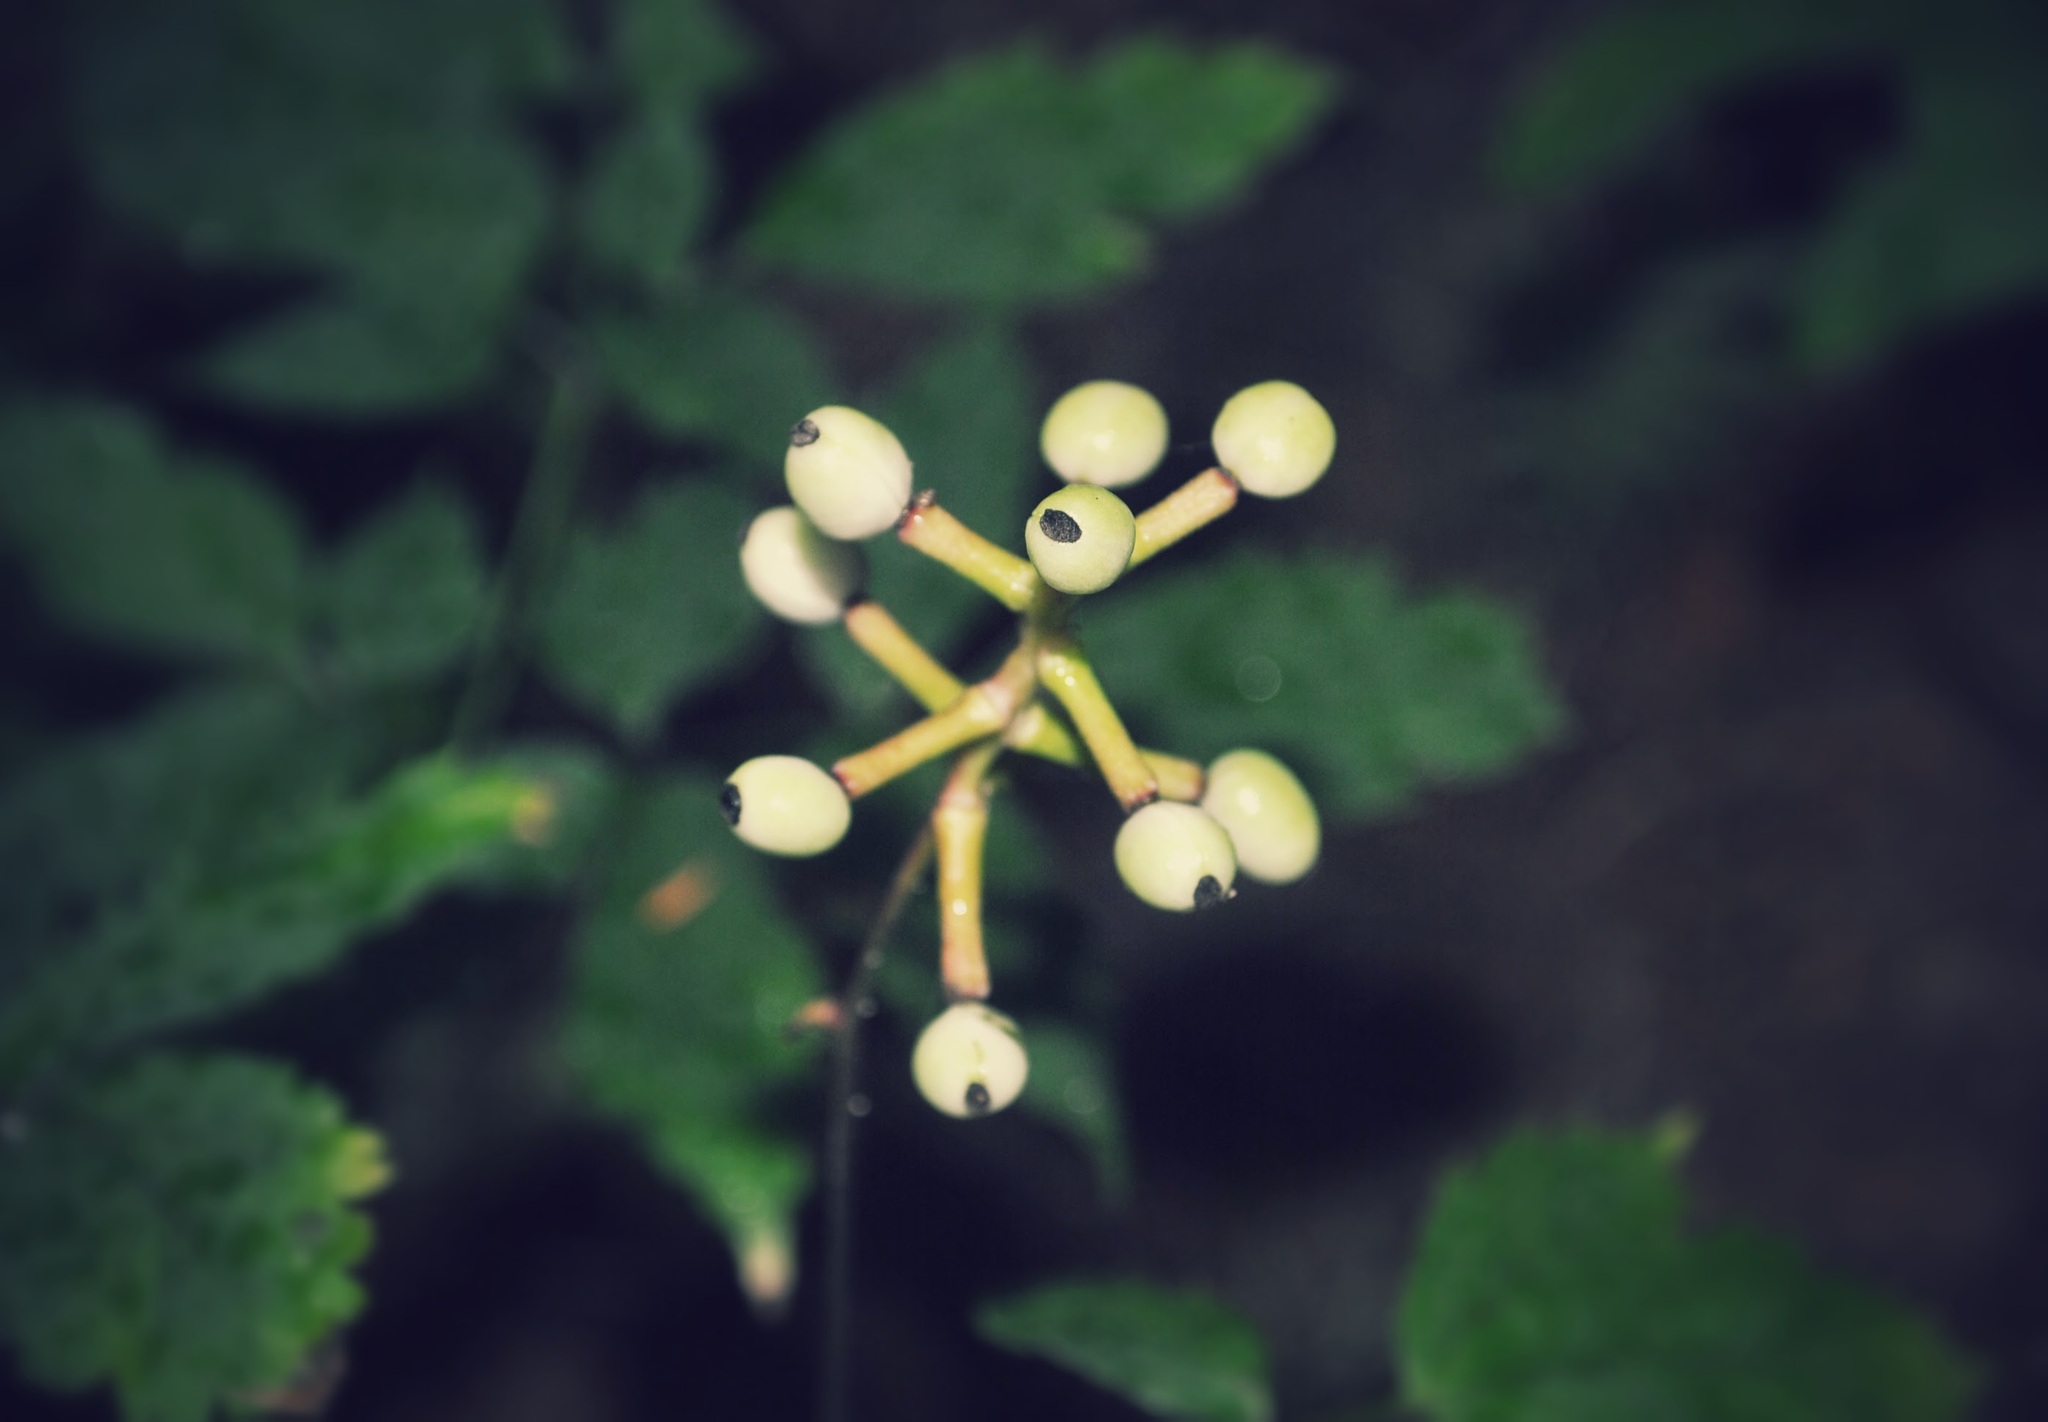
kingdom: Plantae
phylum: Tracheophyta
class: Magnoliopsida
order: Ranunculales
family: Ranunculaceae
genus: Actaea
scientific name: Actaea pachypoda
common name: Doll's-eyes
